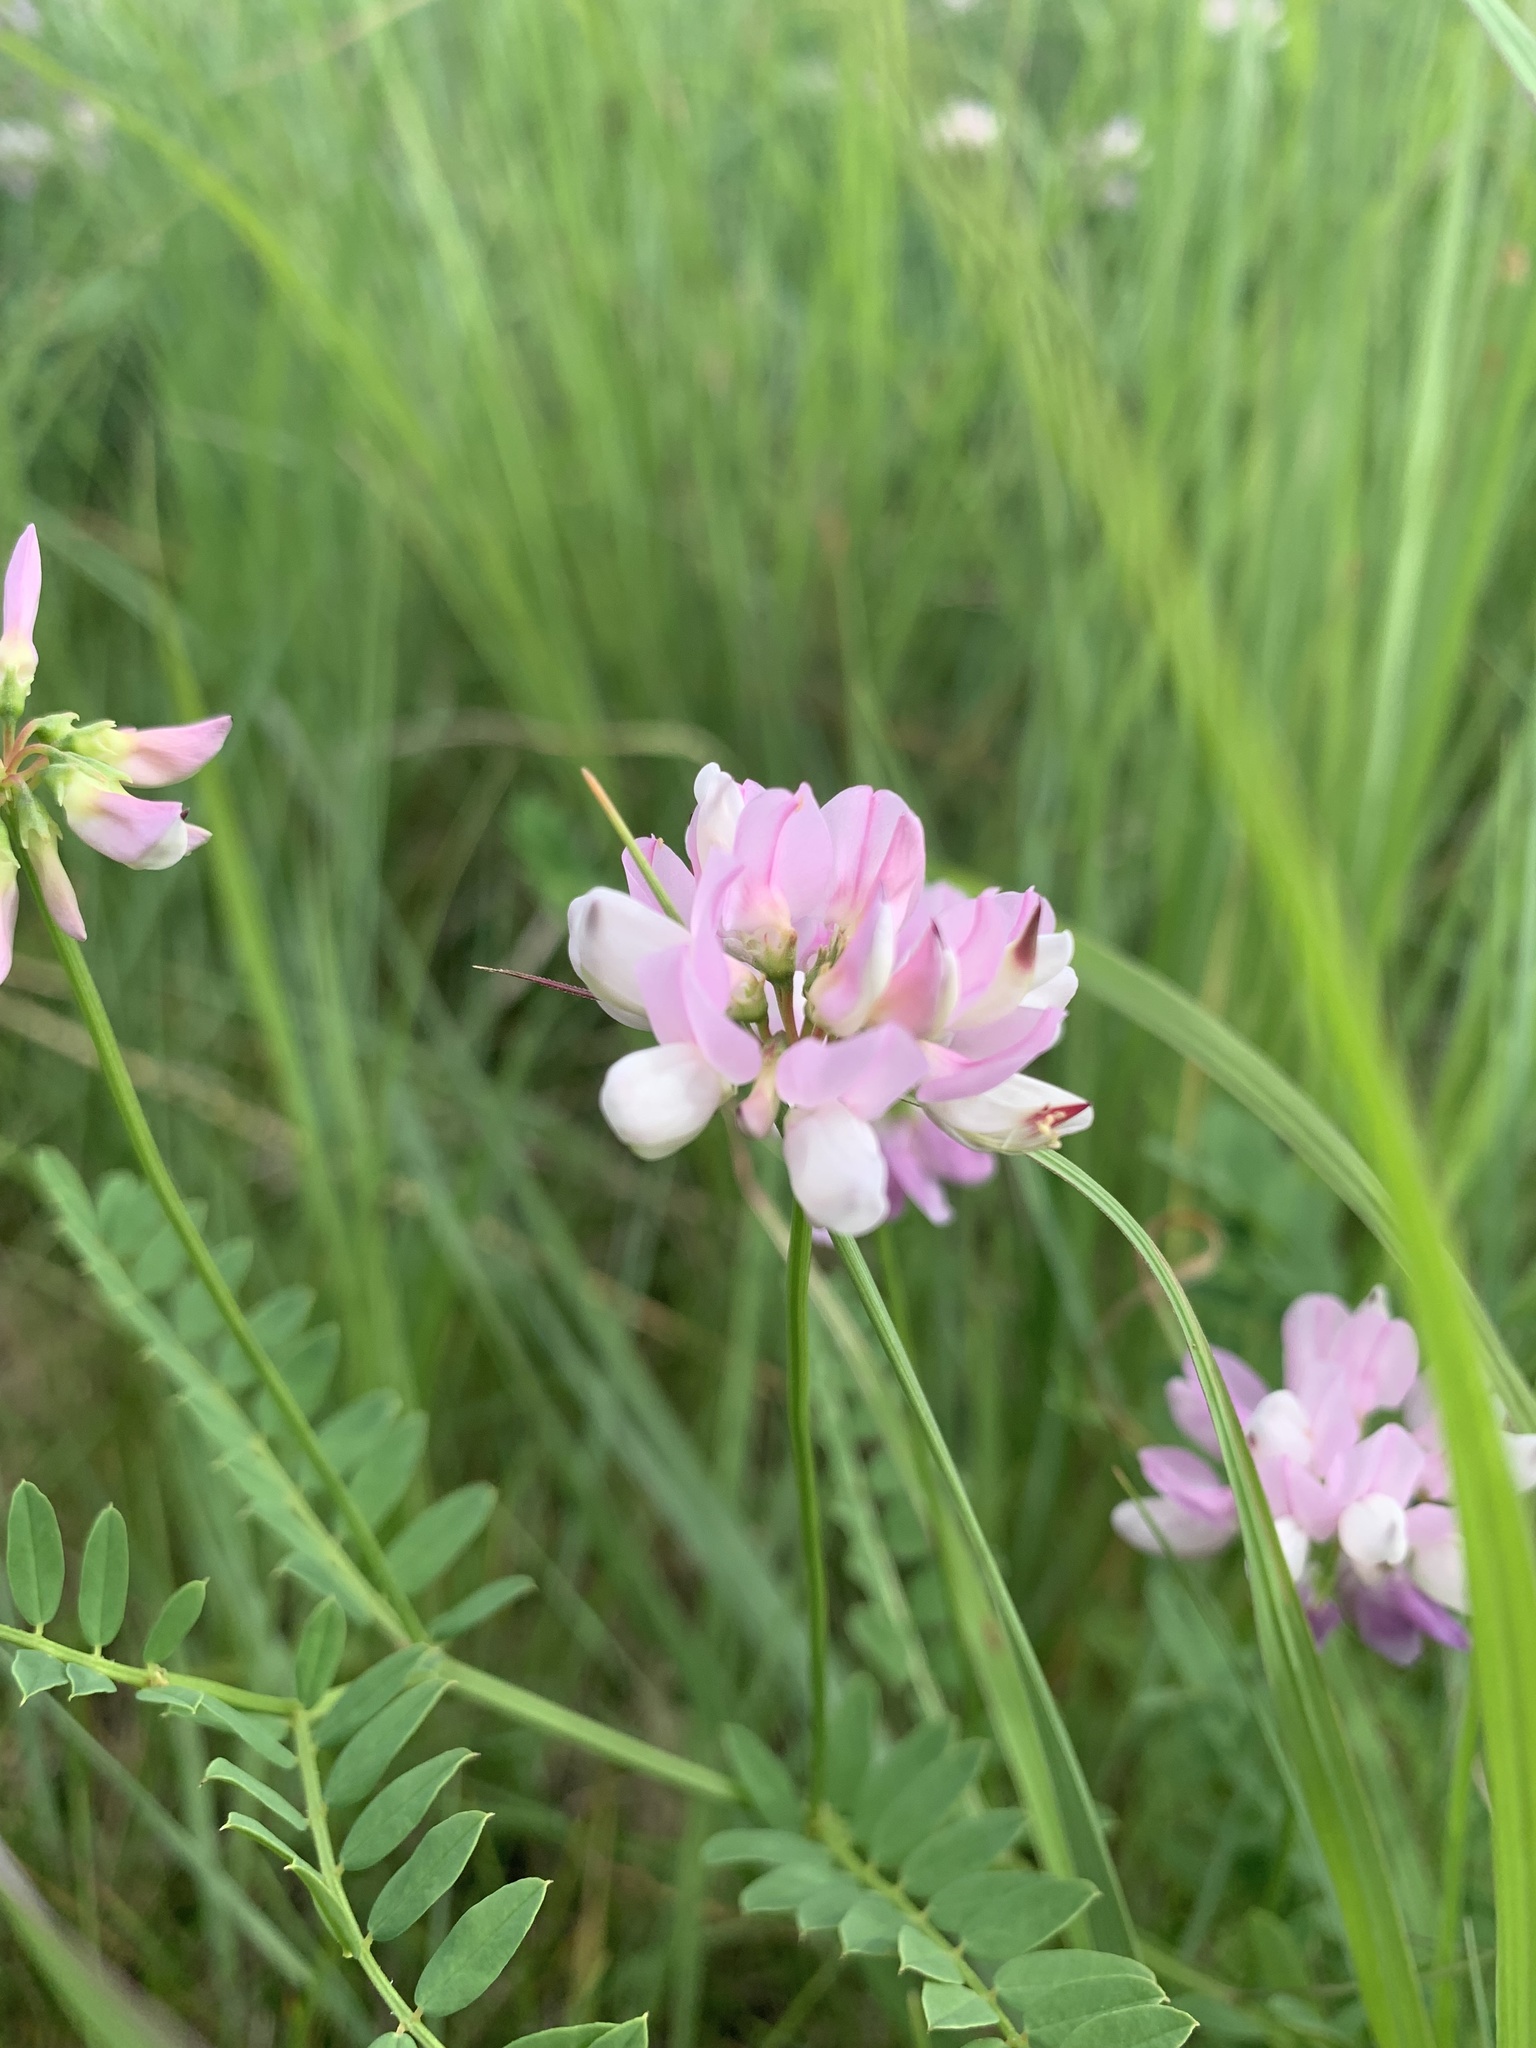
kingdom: Plantae
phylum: Tracheophyta
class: Magnoliopsida
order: Fabales
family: Fabaceae
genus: Coronilla
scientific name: Coronilla varia
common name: Crownvetch
